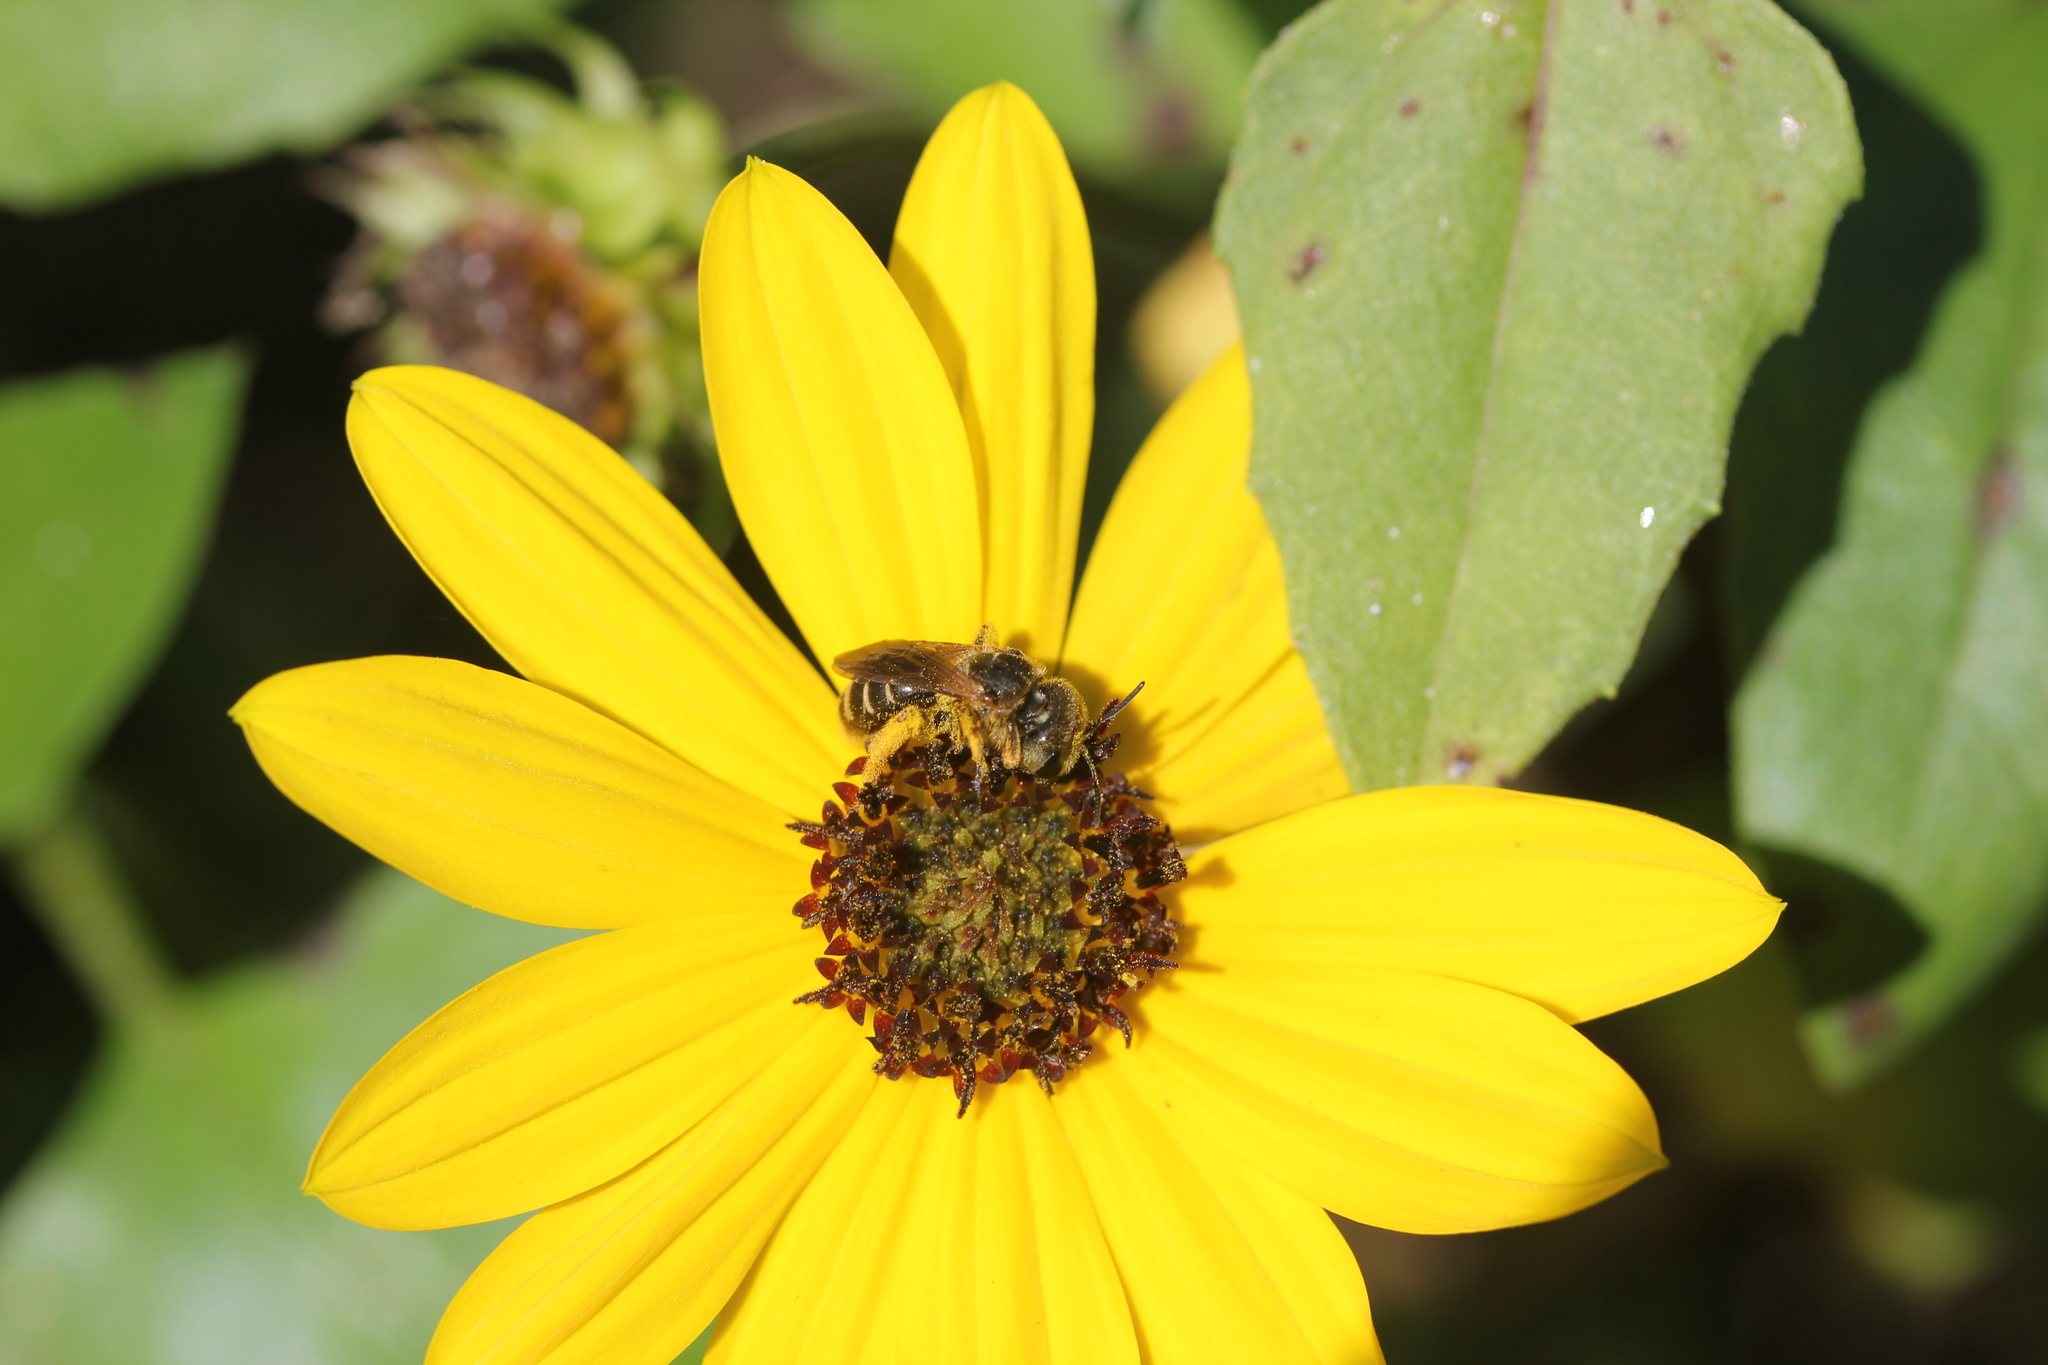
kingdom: Plantae
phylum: Tracheophyta
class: Magnoliopsida
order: Asterales
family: Asteraceae
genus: Helianthus
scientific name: Helianthus debilis
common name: Weak sunflower
